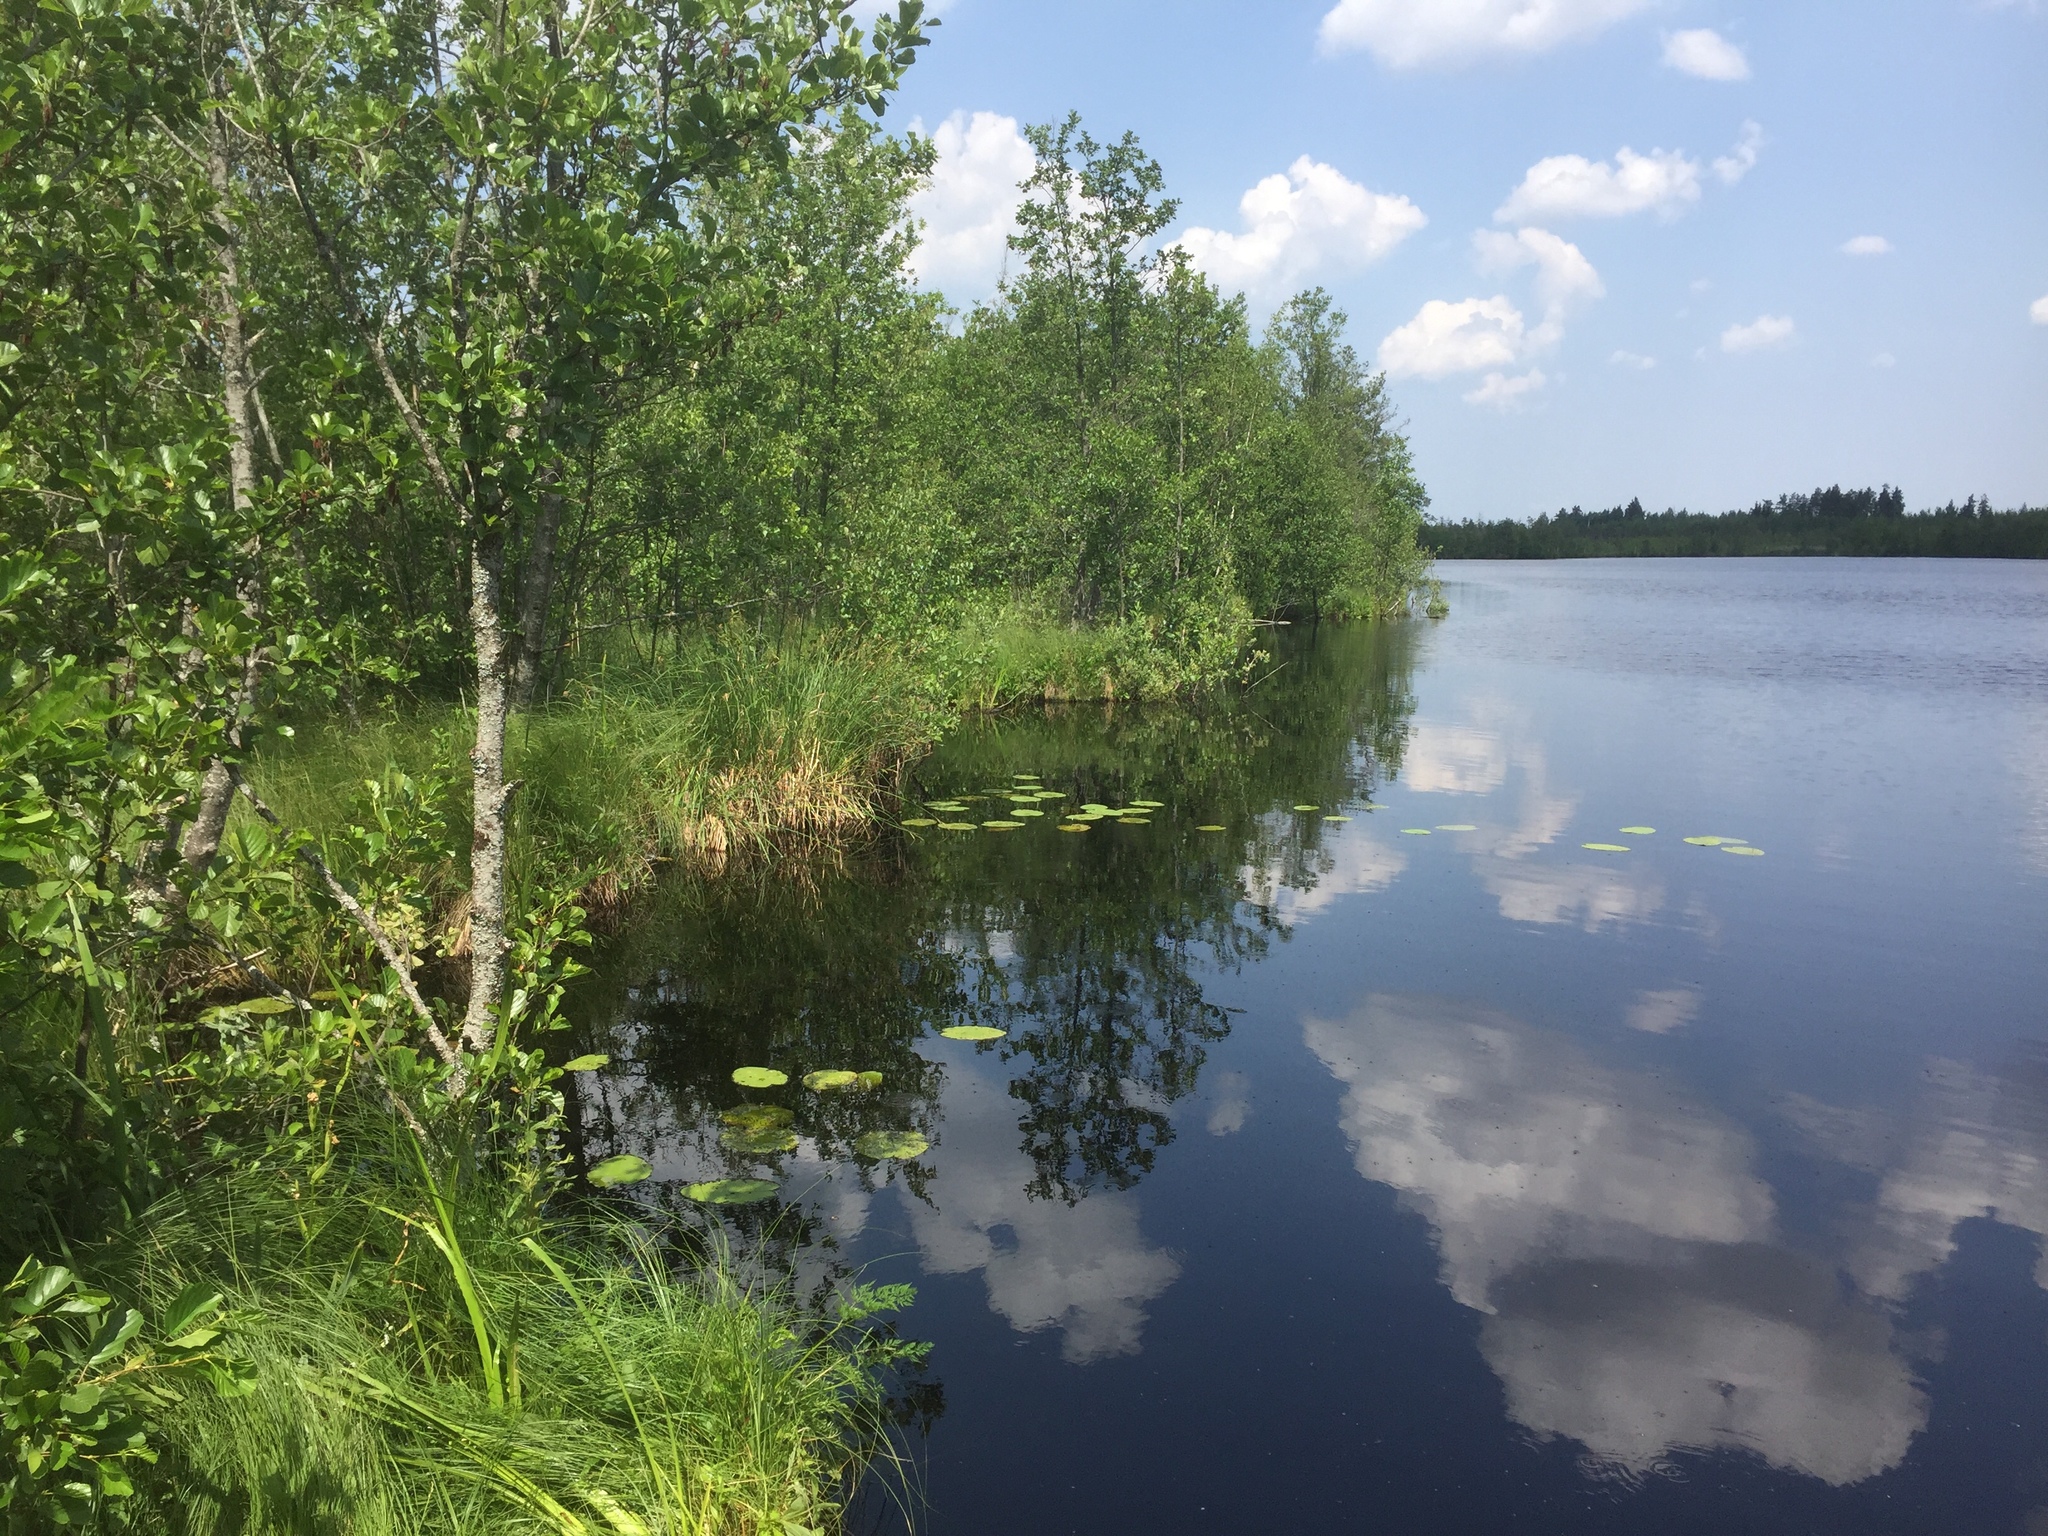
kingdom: Plantae
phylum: Tracheophyta
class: Magnoliopsida
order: Fagales
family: Betulaceae
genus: Alnus
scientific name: Alnus glutinosa
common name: Black alder
